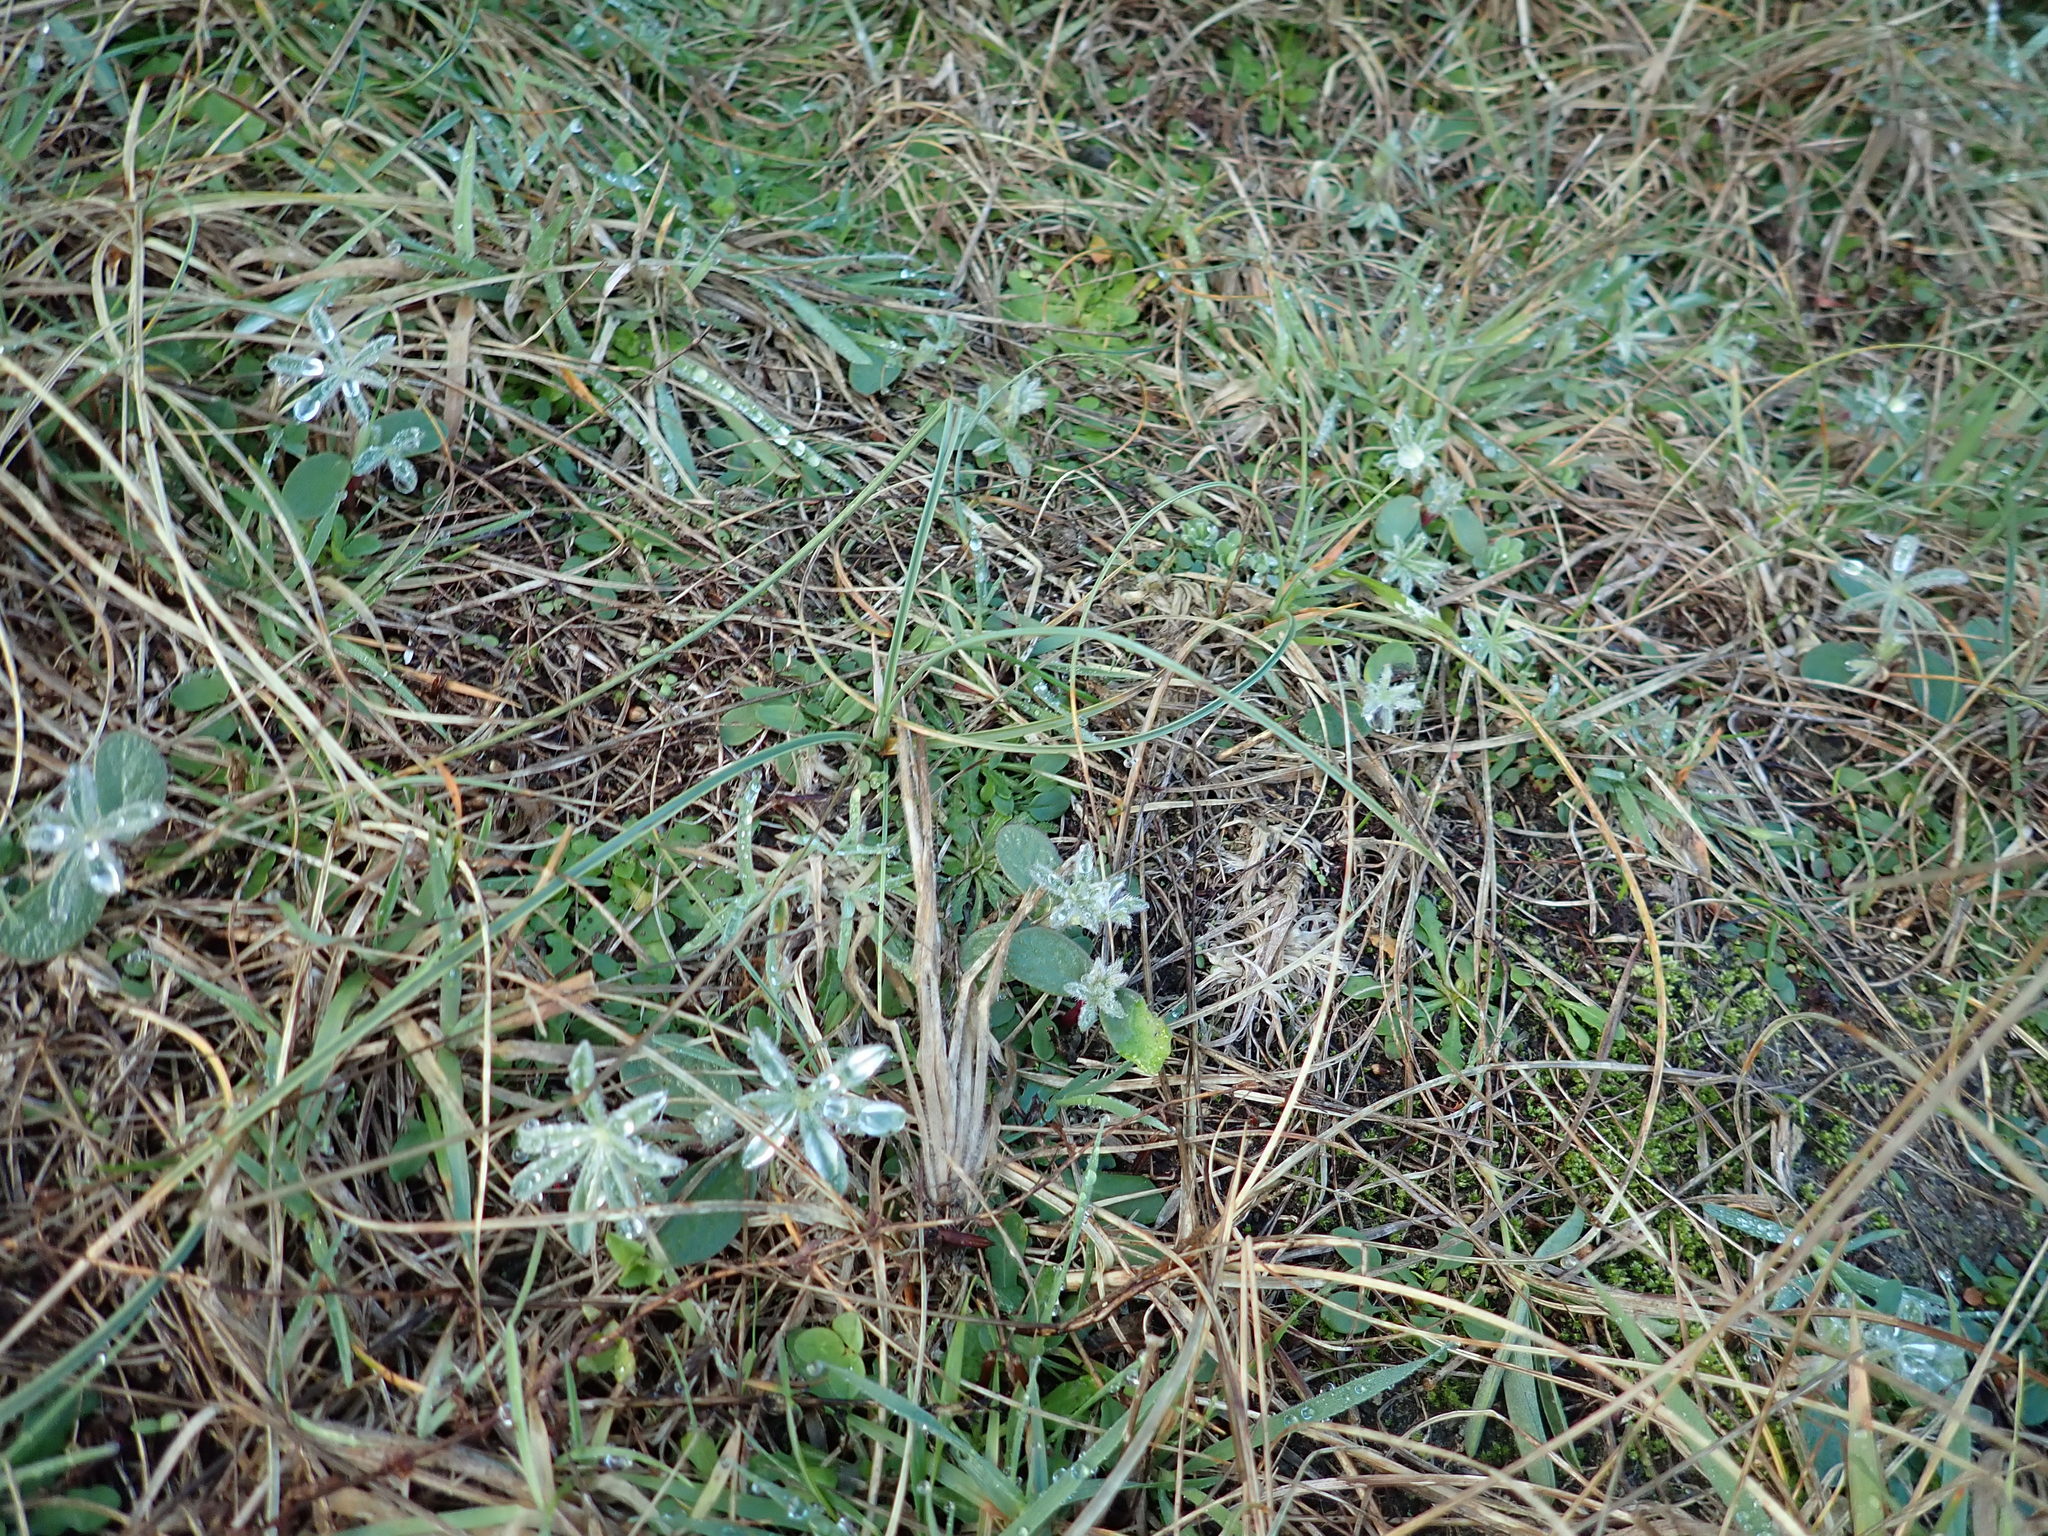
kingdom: Plantae
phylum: Tracheophyta
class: Magnoliopsida
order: Fabales
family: Fabaceae
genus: Lupinus
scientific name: Lupinus arboreus
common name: Yellow bush lupine
